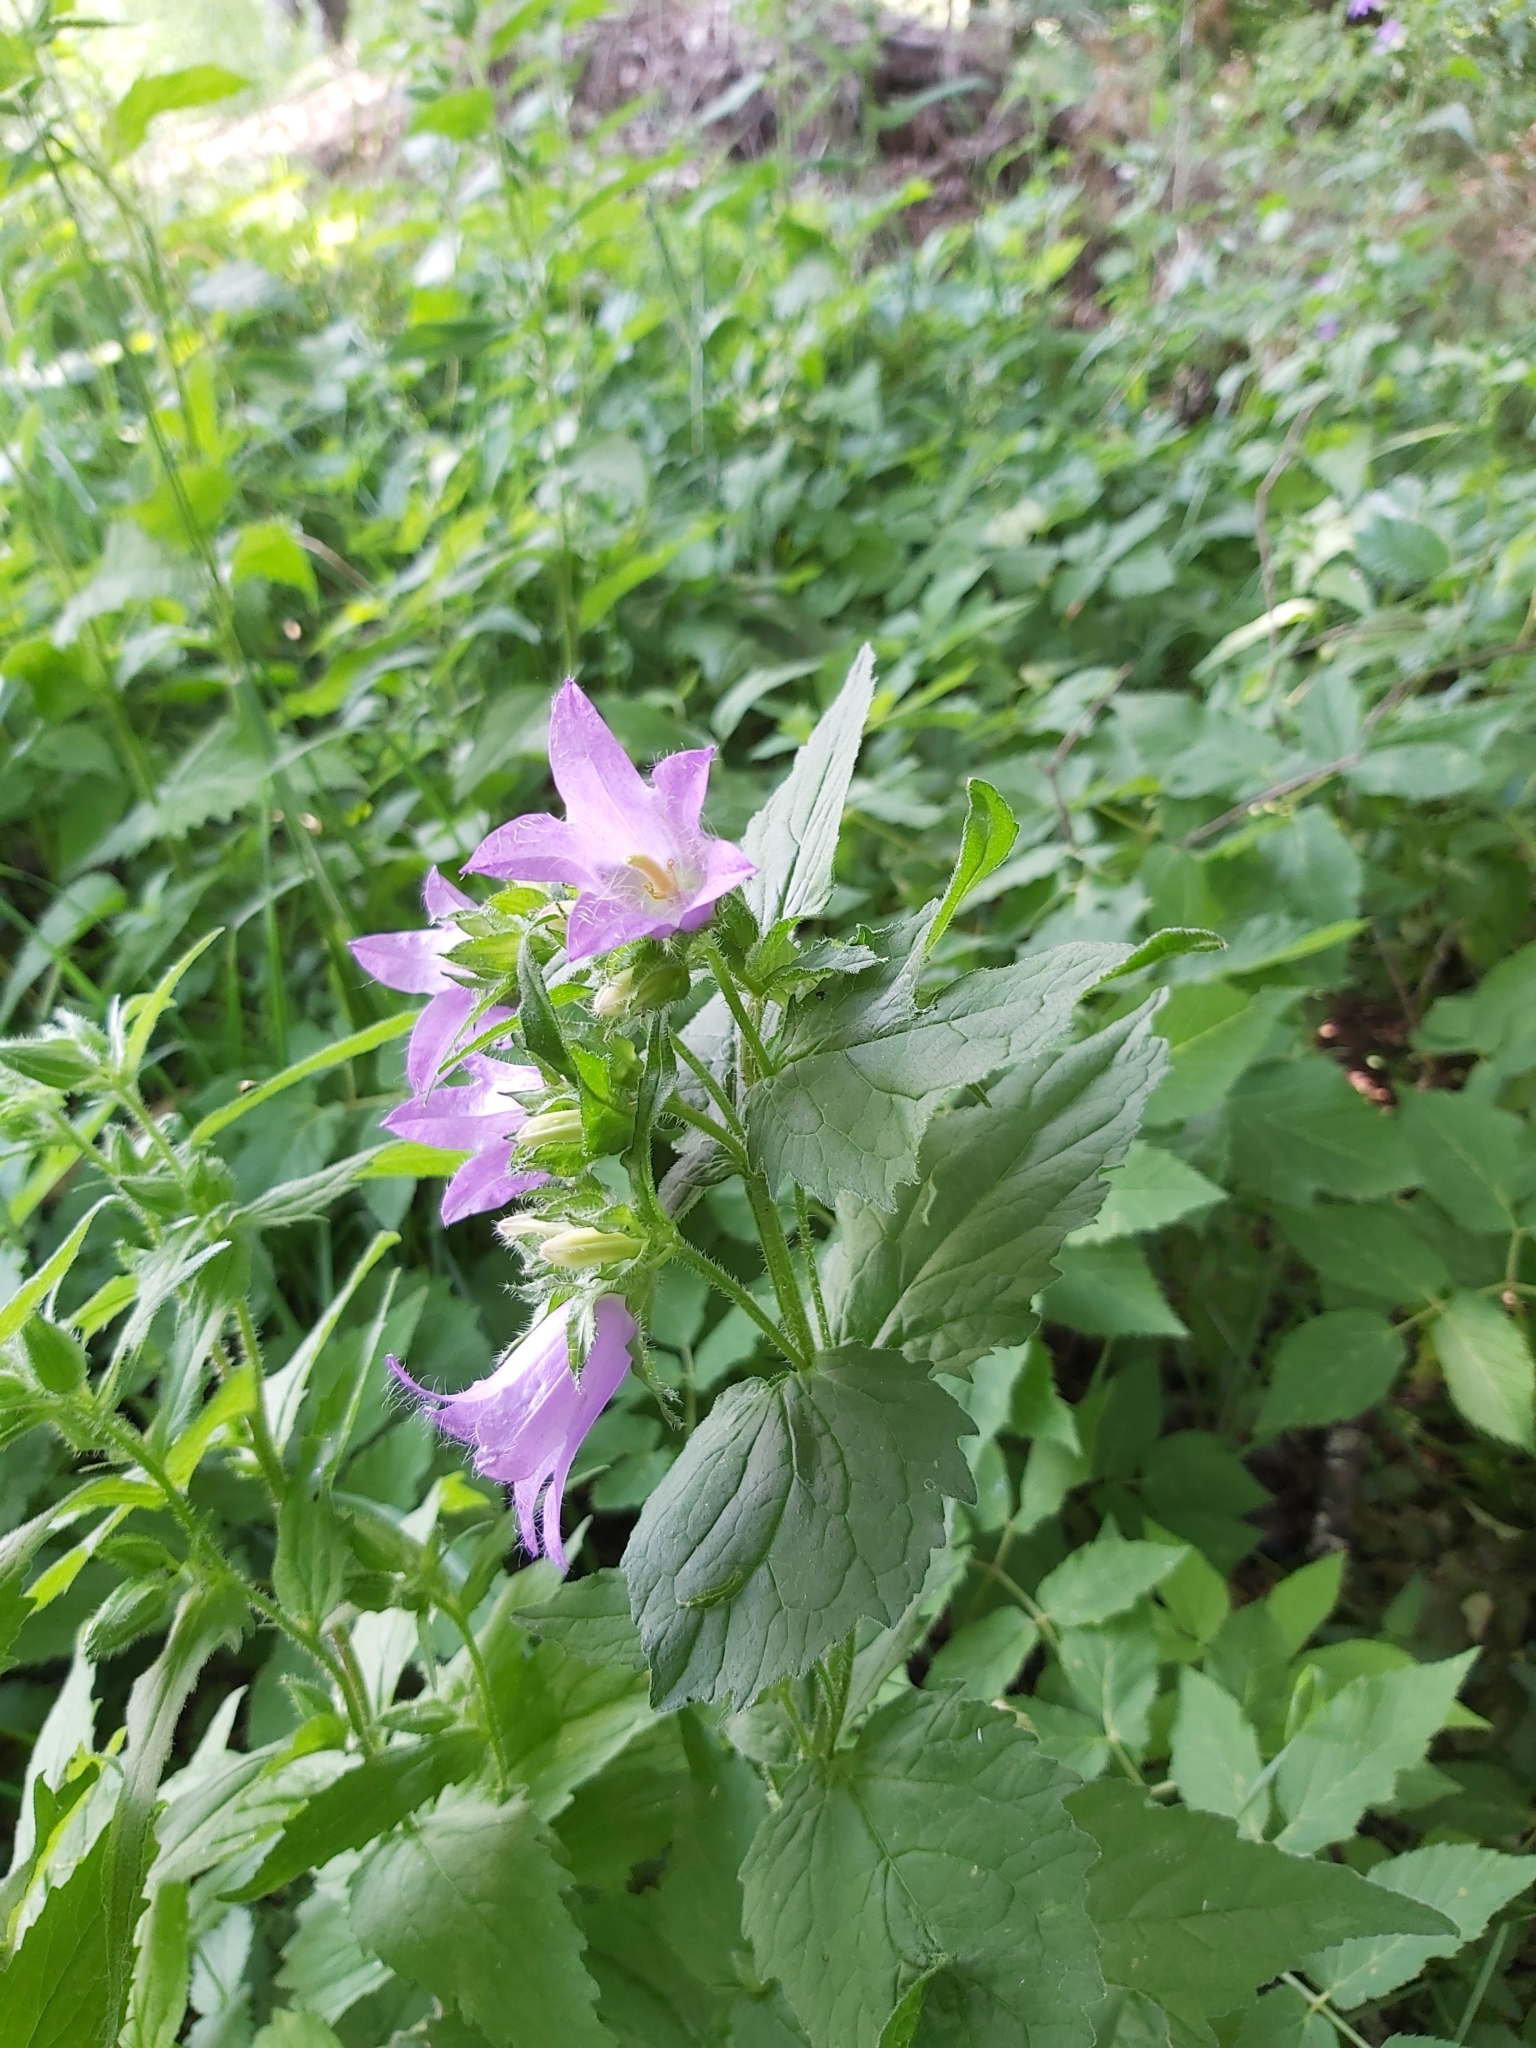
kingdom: Plantae
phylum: Tracheophyta
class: Magnoliopsida
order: Asterales
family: Campanulaceae
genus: Campanula
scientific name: Campanula trachelium
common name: Nettle-leaved bellflower
